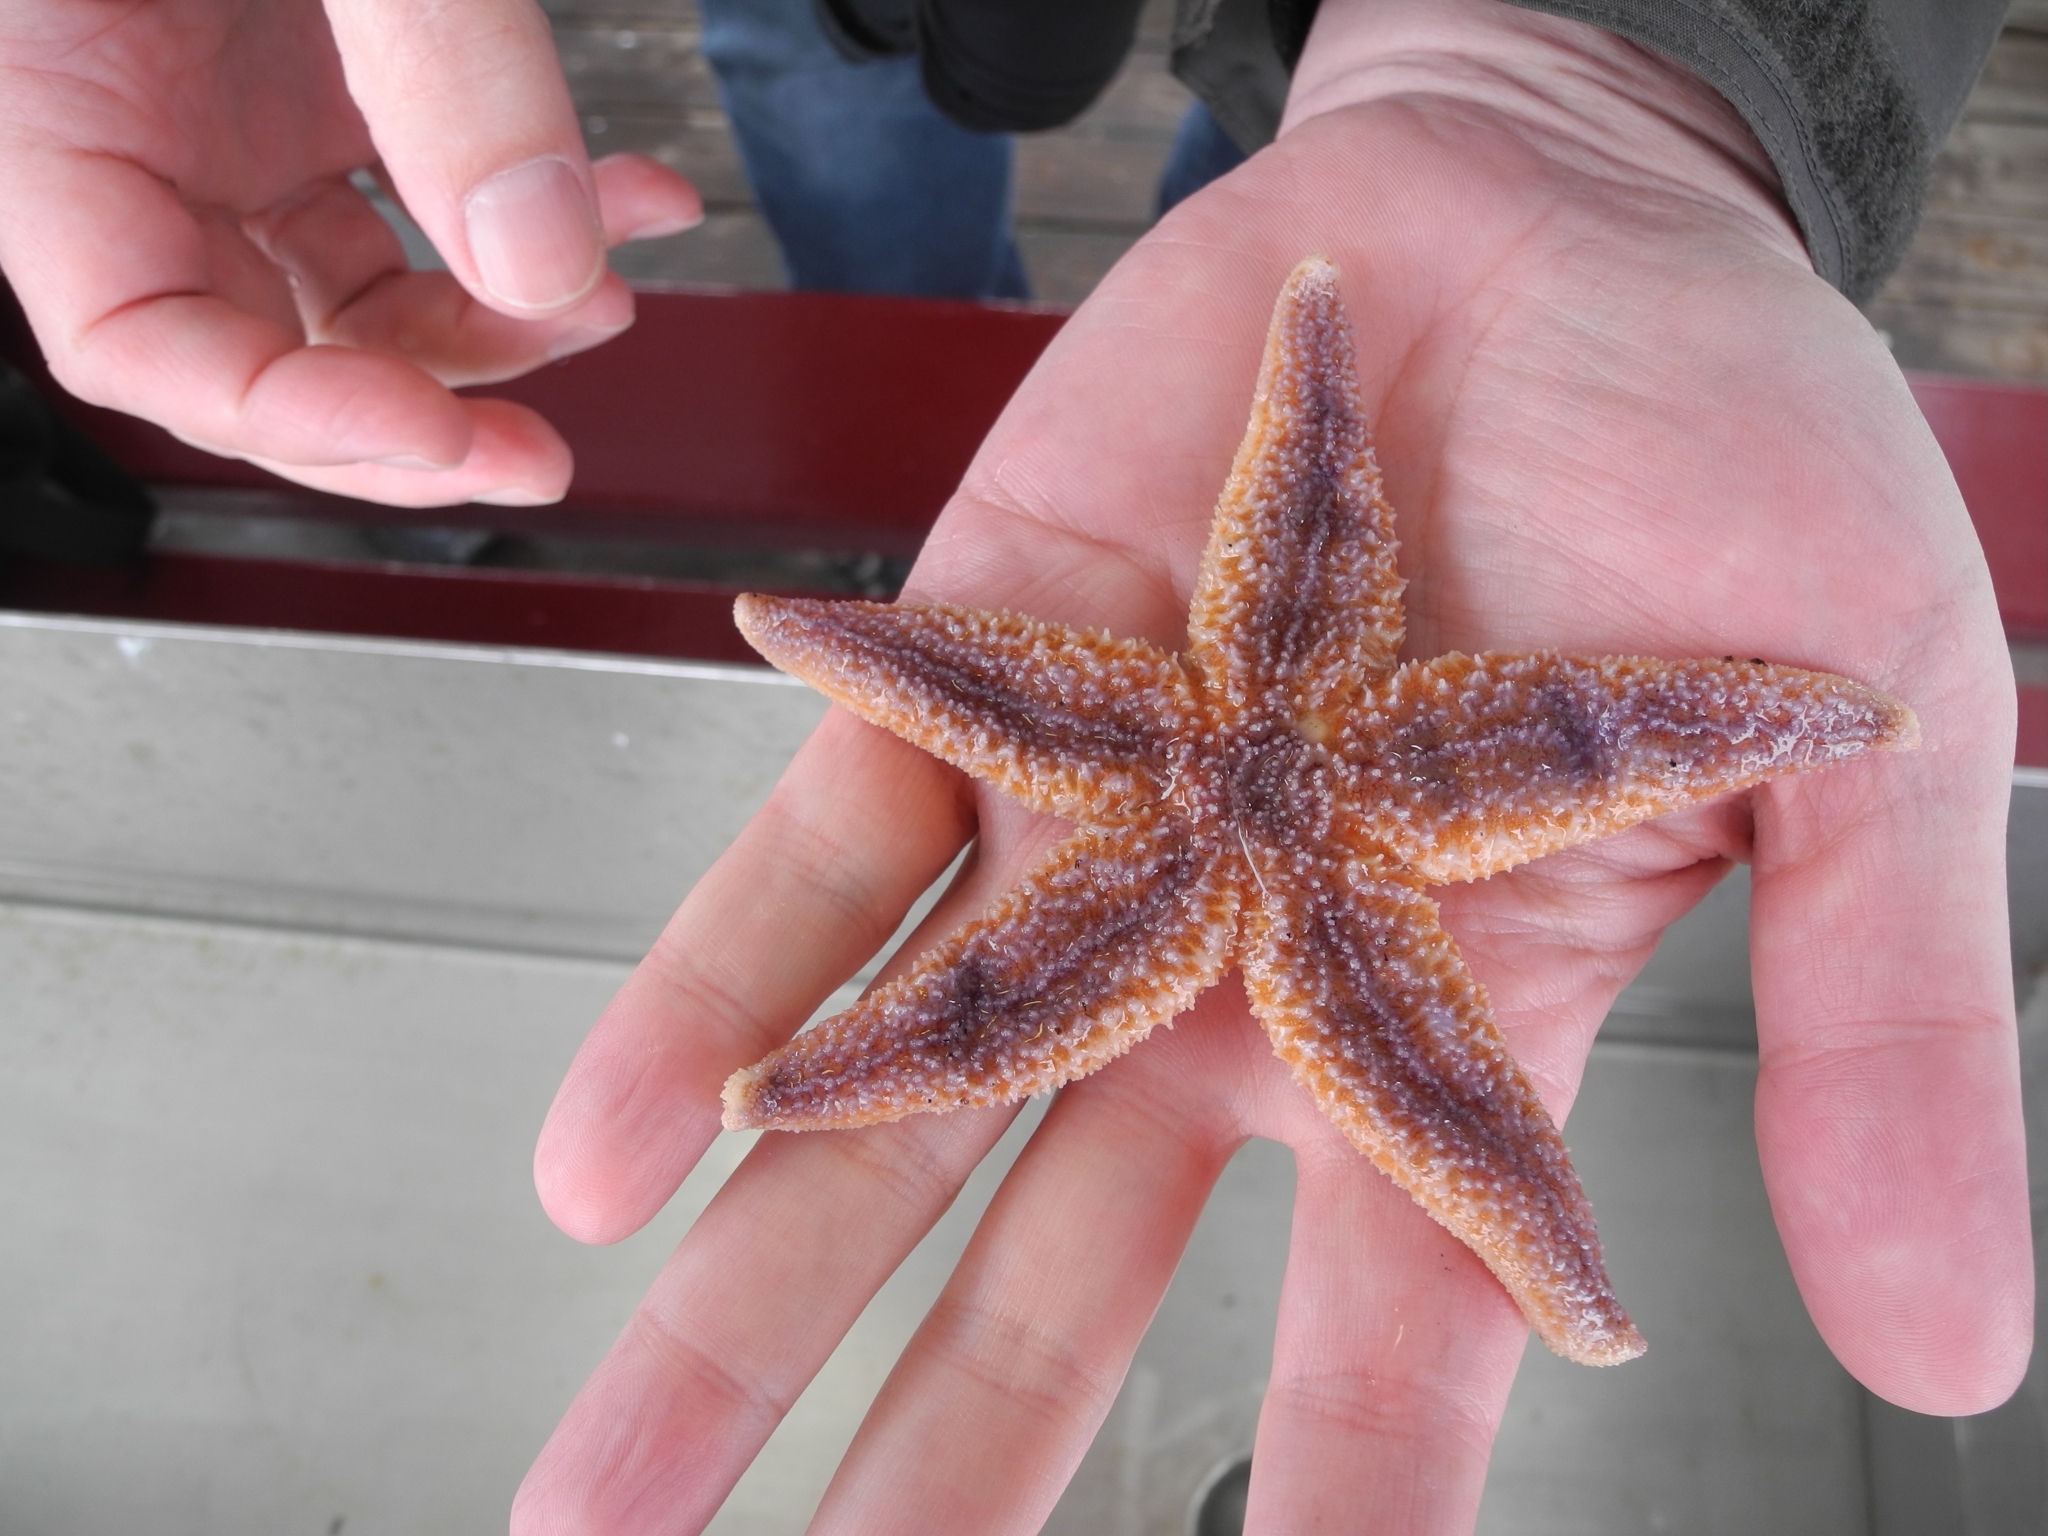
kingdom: Animalia
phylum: Echinodermata
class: Asteroidea
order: Forcipulatida
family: Asteriidae
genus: Asterias
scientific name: Asterias rubens
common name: Common starfish
